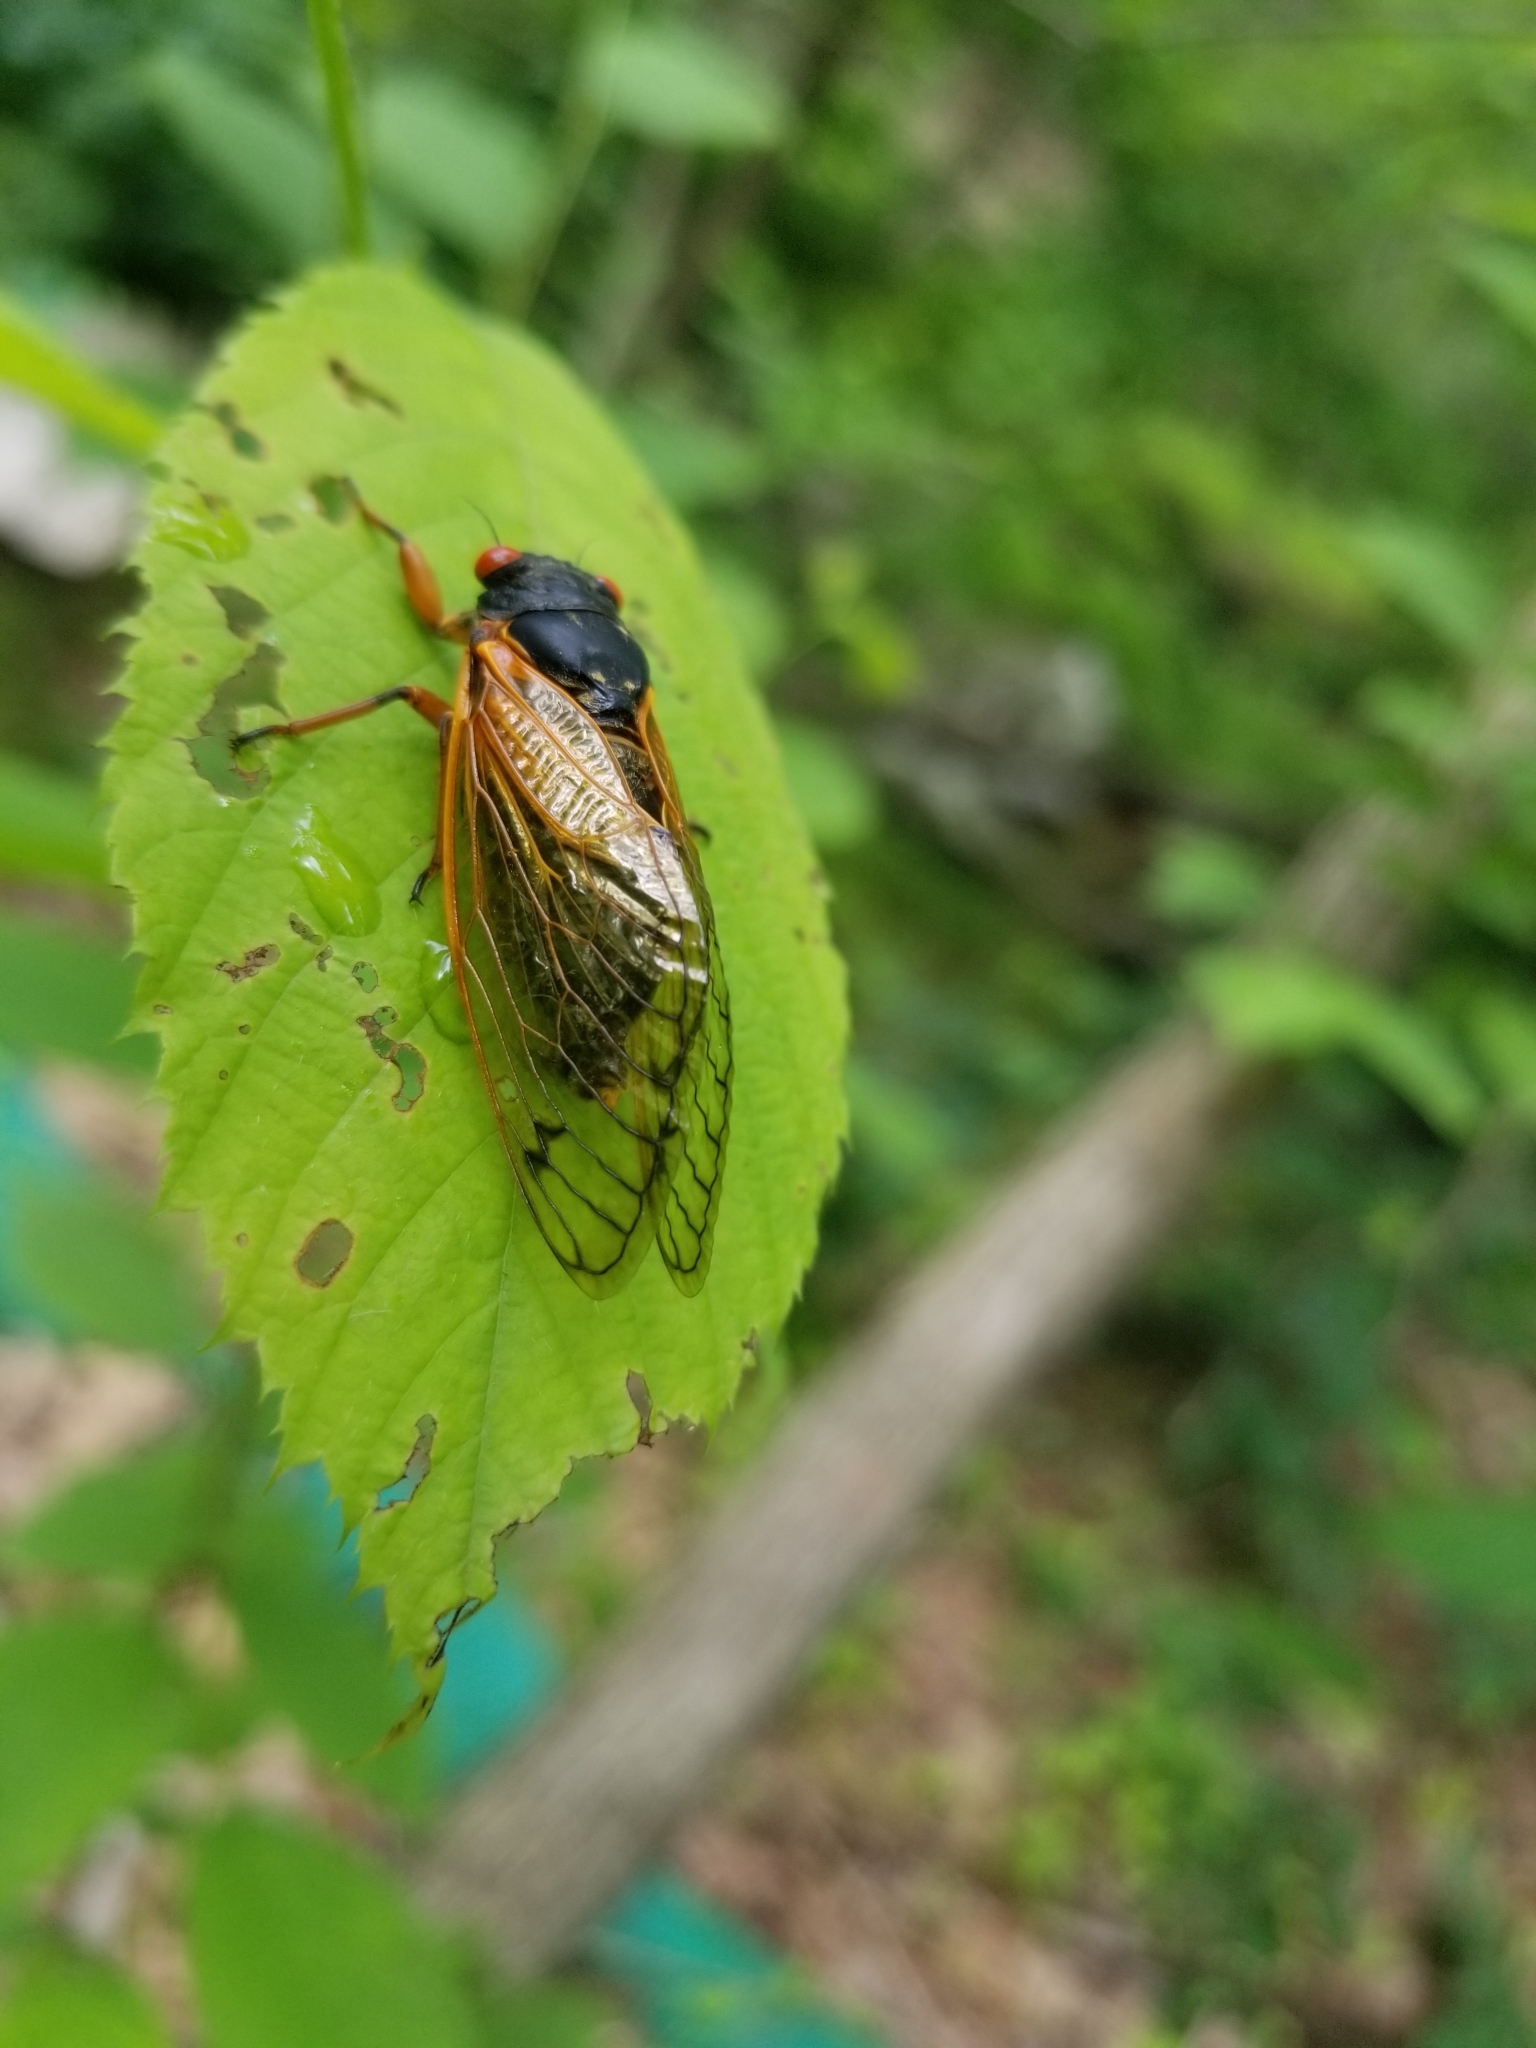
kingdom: Animalia
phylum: Arthropoda
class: Insecta
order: Hemiptera
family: Cicadidae
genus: Magicicada
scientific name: Magicicada
